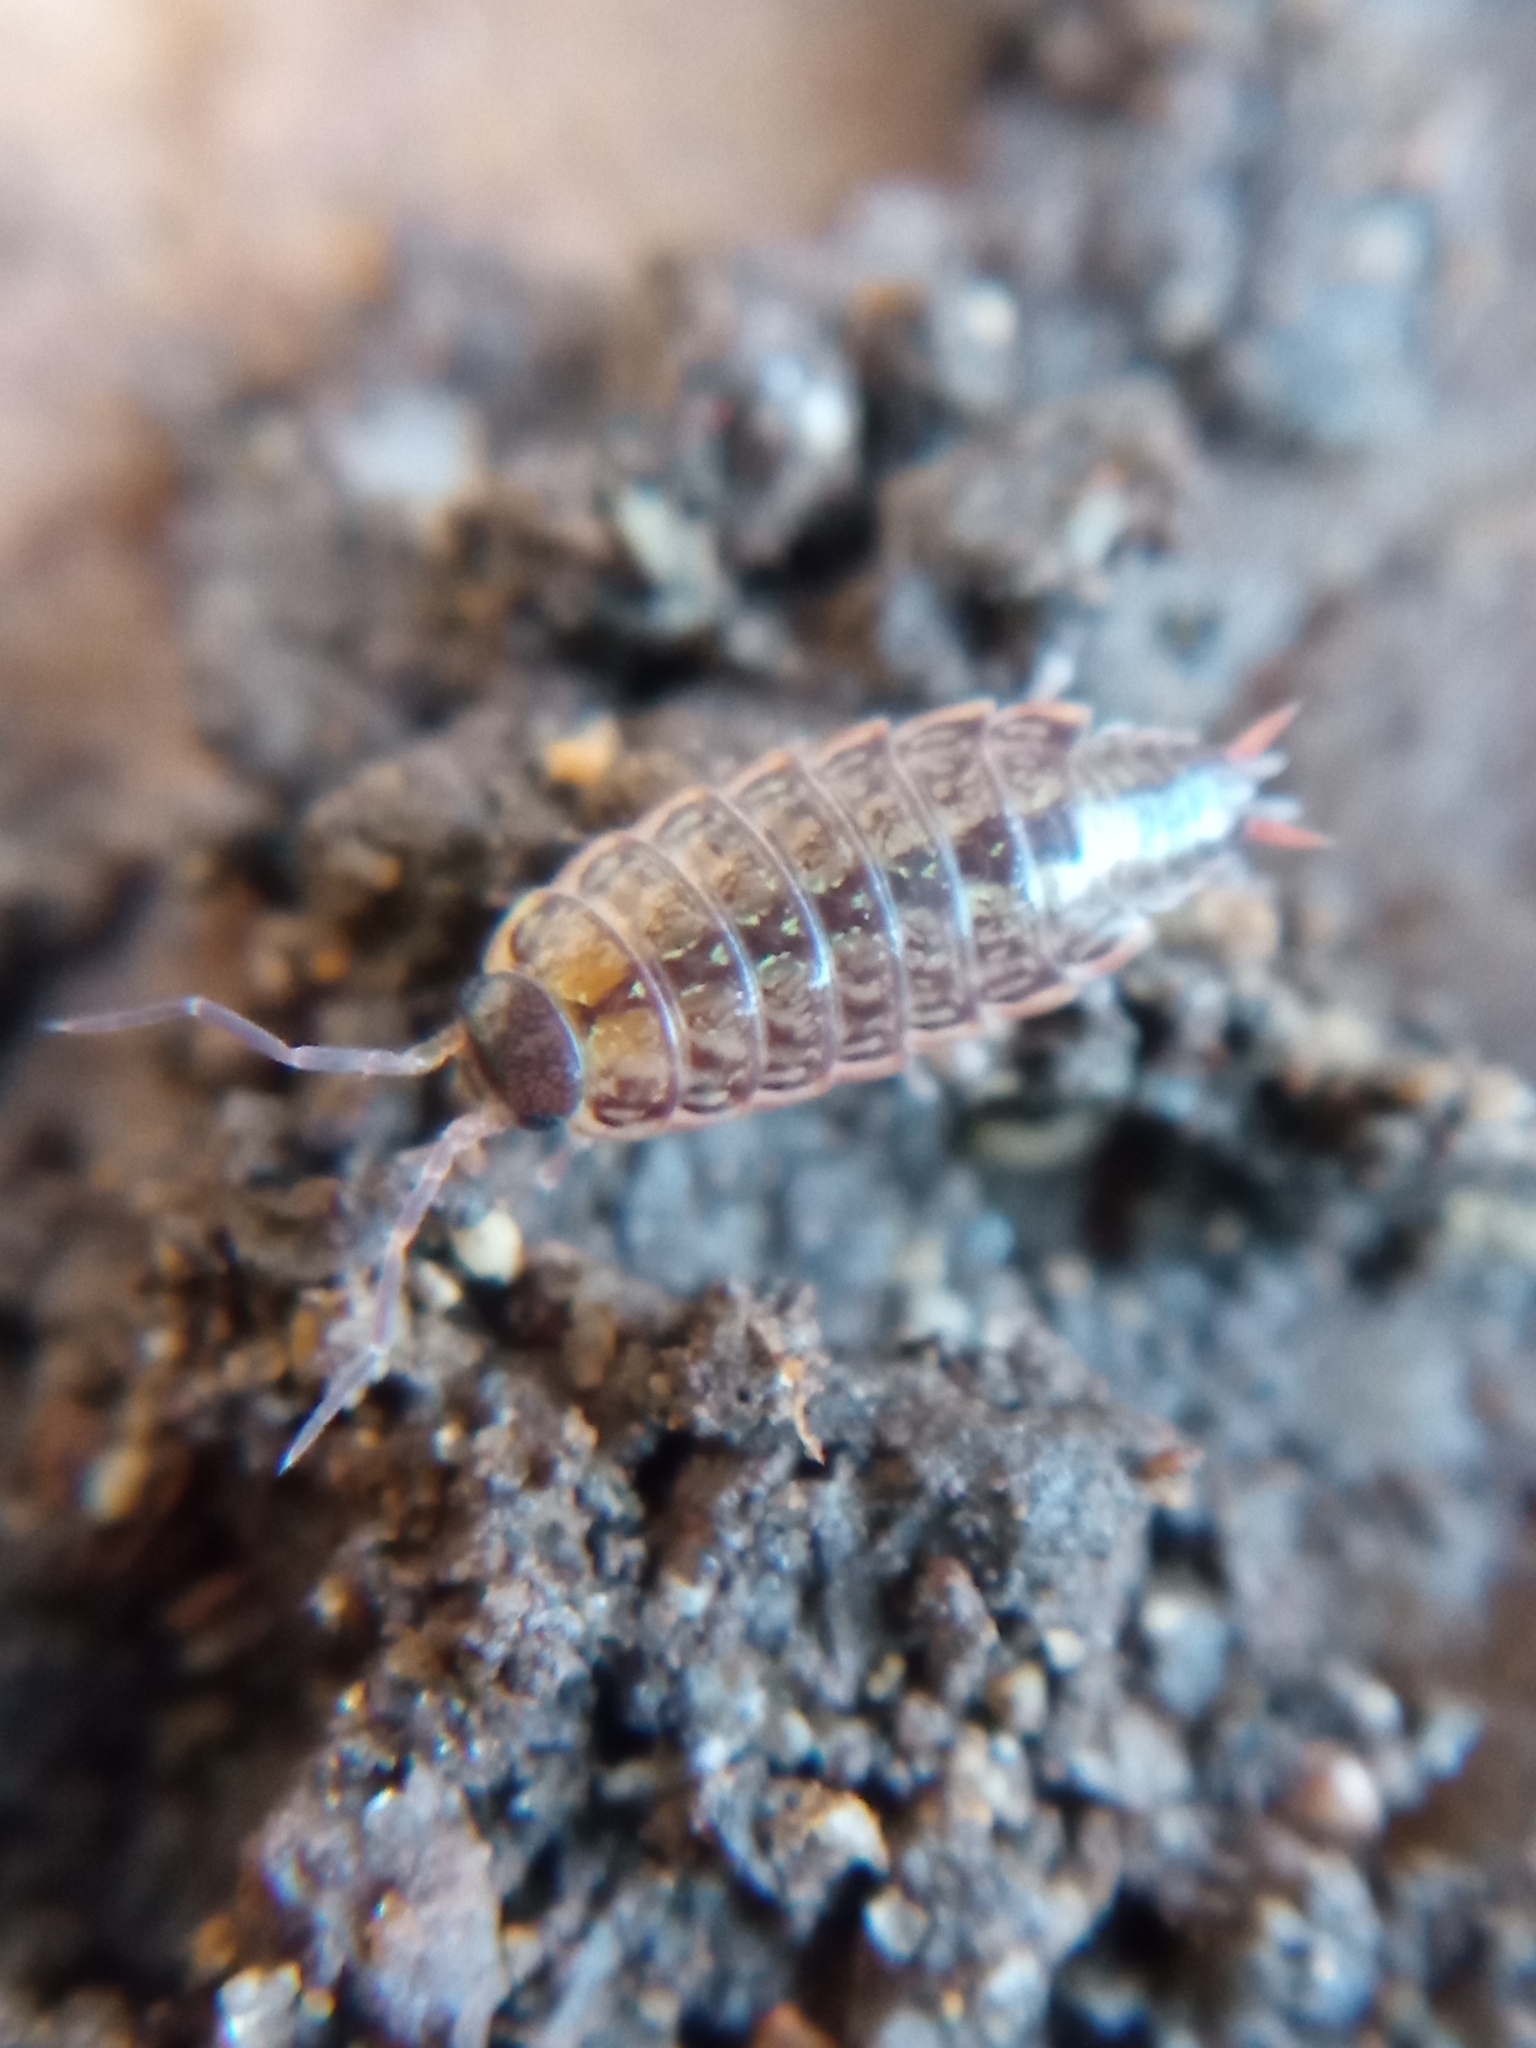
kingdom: Animalia
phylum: Arthropoda
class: Malacostraca
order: Isopoda
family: Philosciidae
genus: Philoscia
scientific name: Philoscia muscorum
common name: Common striped woodlouse
